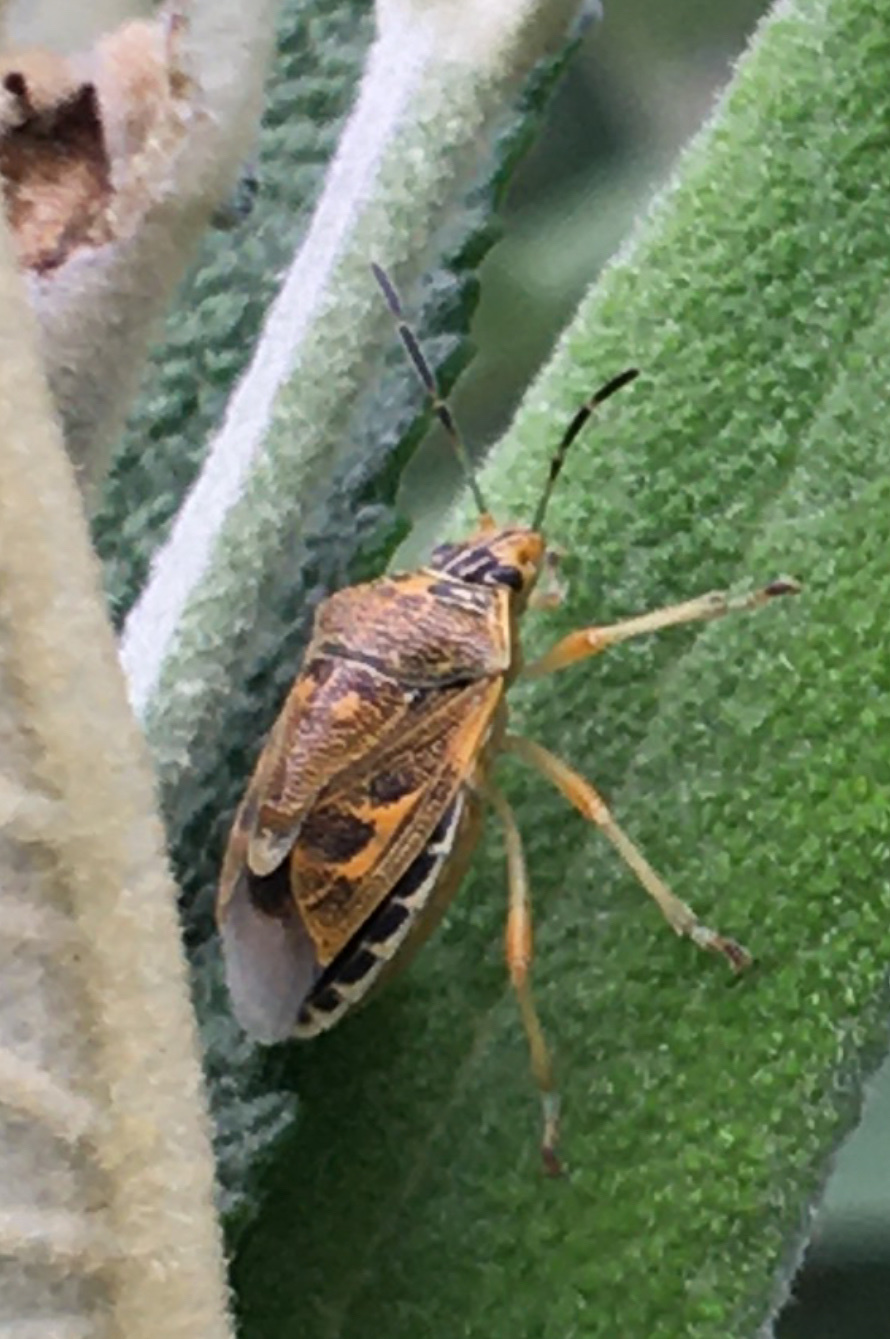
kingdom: Animalia
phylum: Arthropoda
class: Insecta
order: Hemiptera
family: Pentatomidae
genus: Antestiopsis
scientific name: Antestiopsis thunbergii
